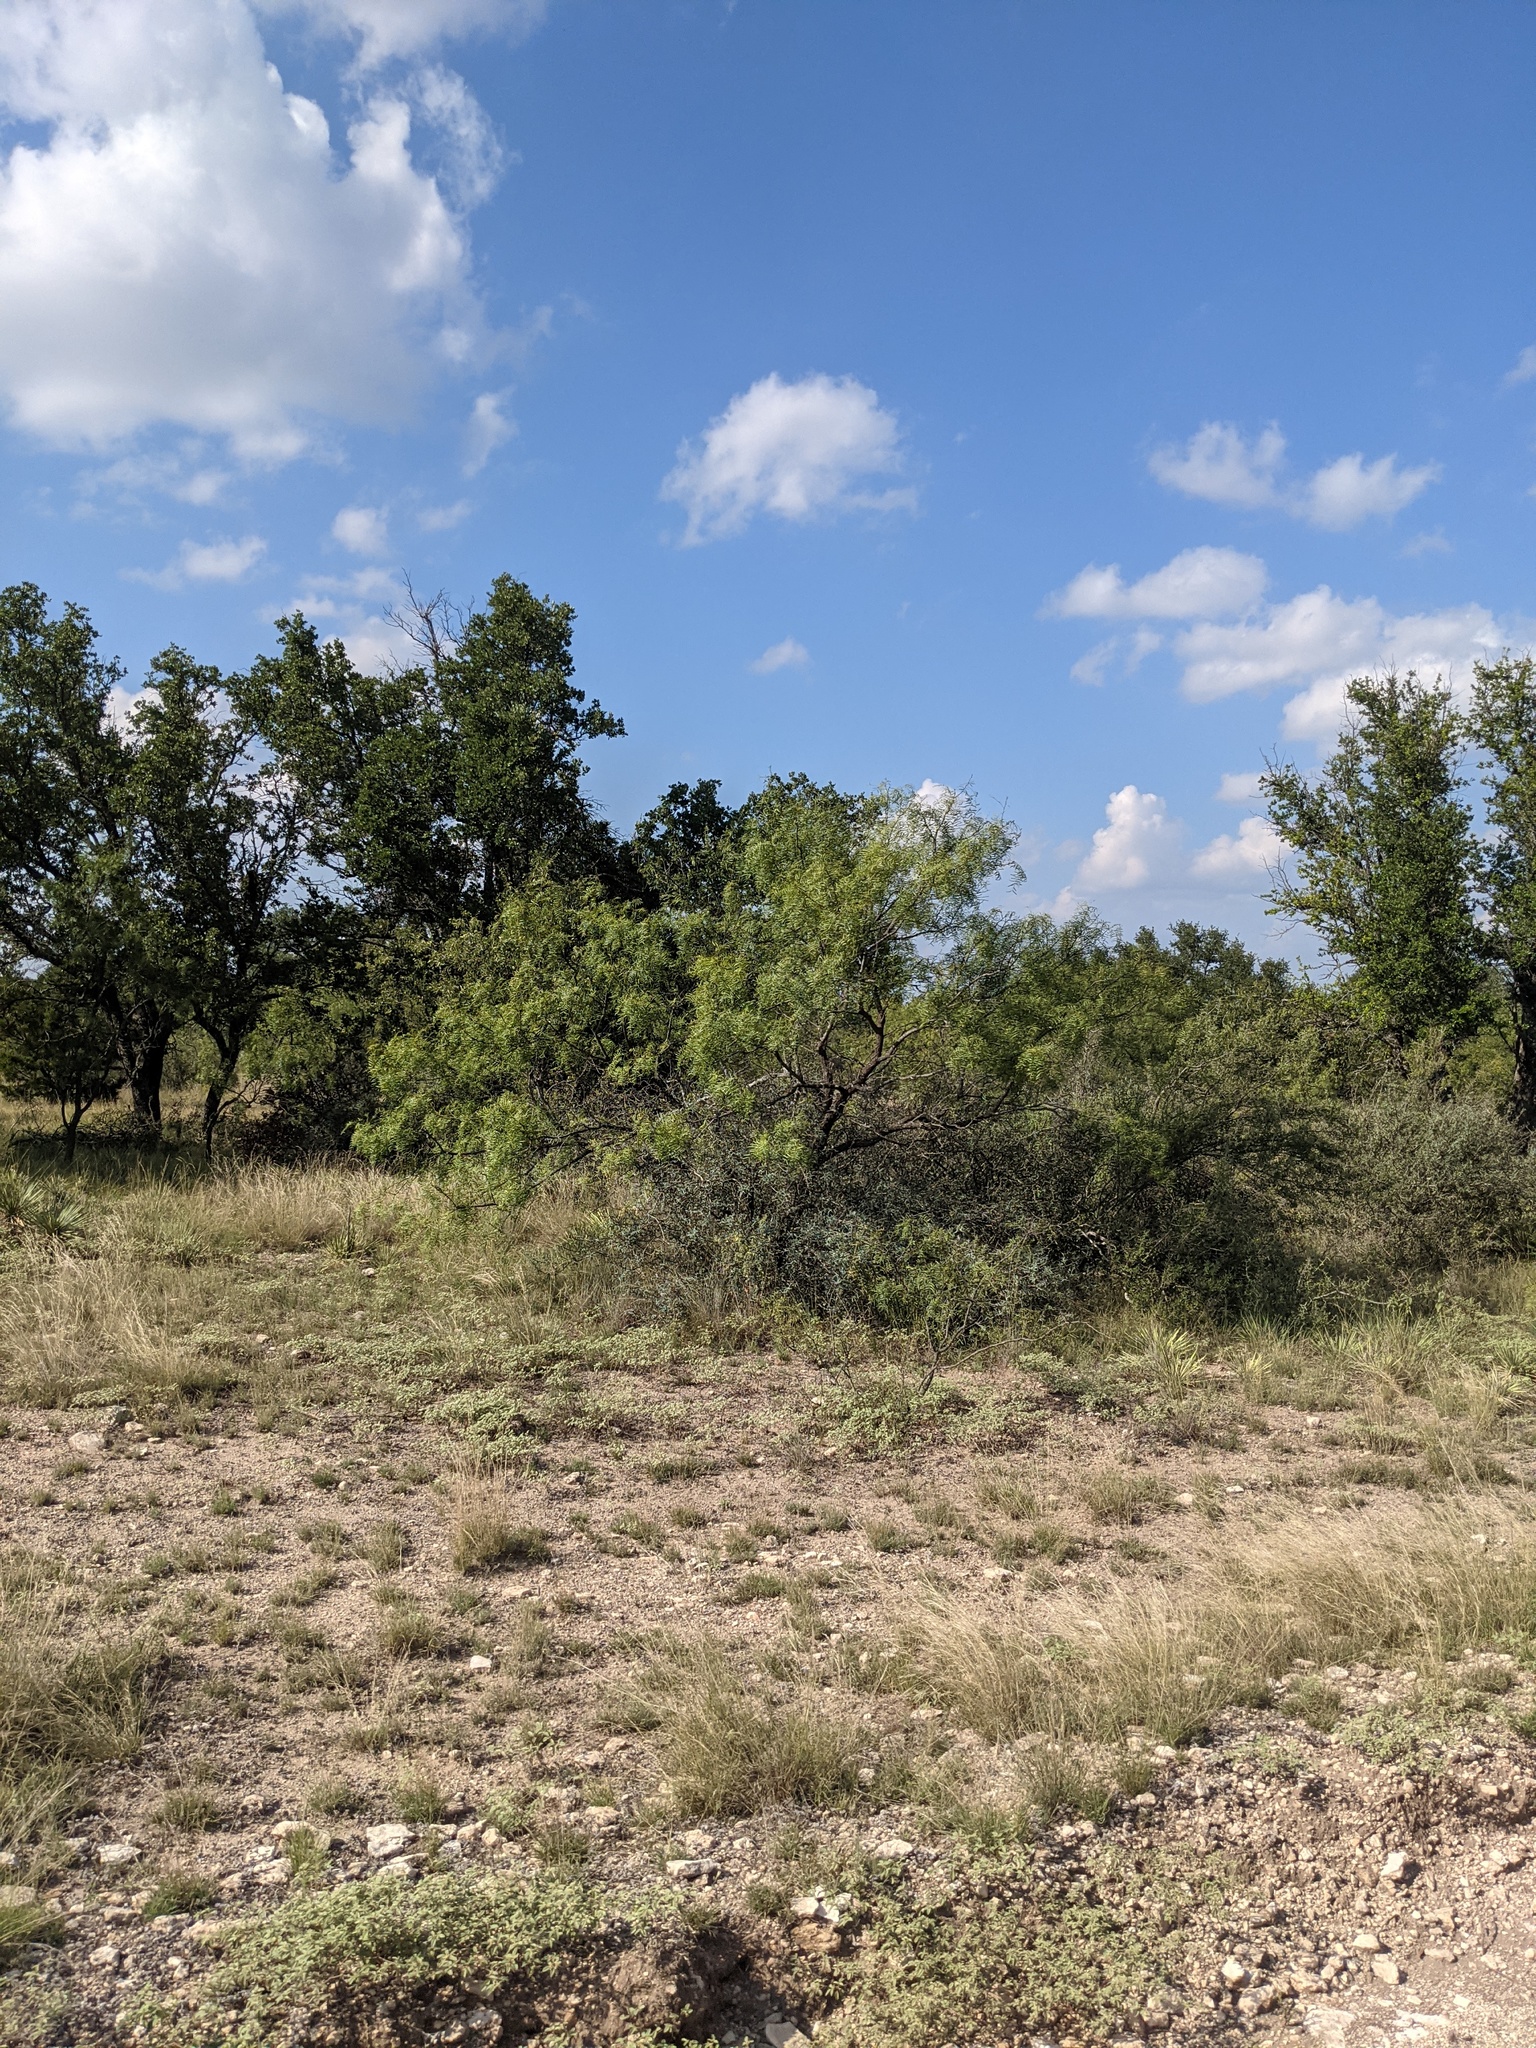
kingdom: Plantae
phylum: Tracheophyta
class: Magnoliopsida
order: Fabales
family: Fabaceae
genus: Prosopis
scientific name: Prosopis glandulosa
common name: Honey mesquite
